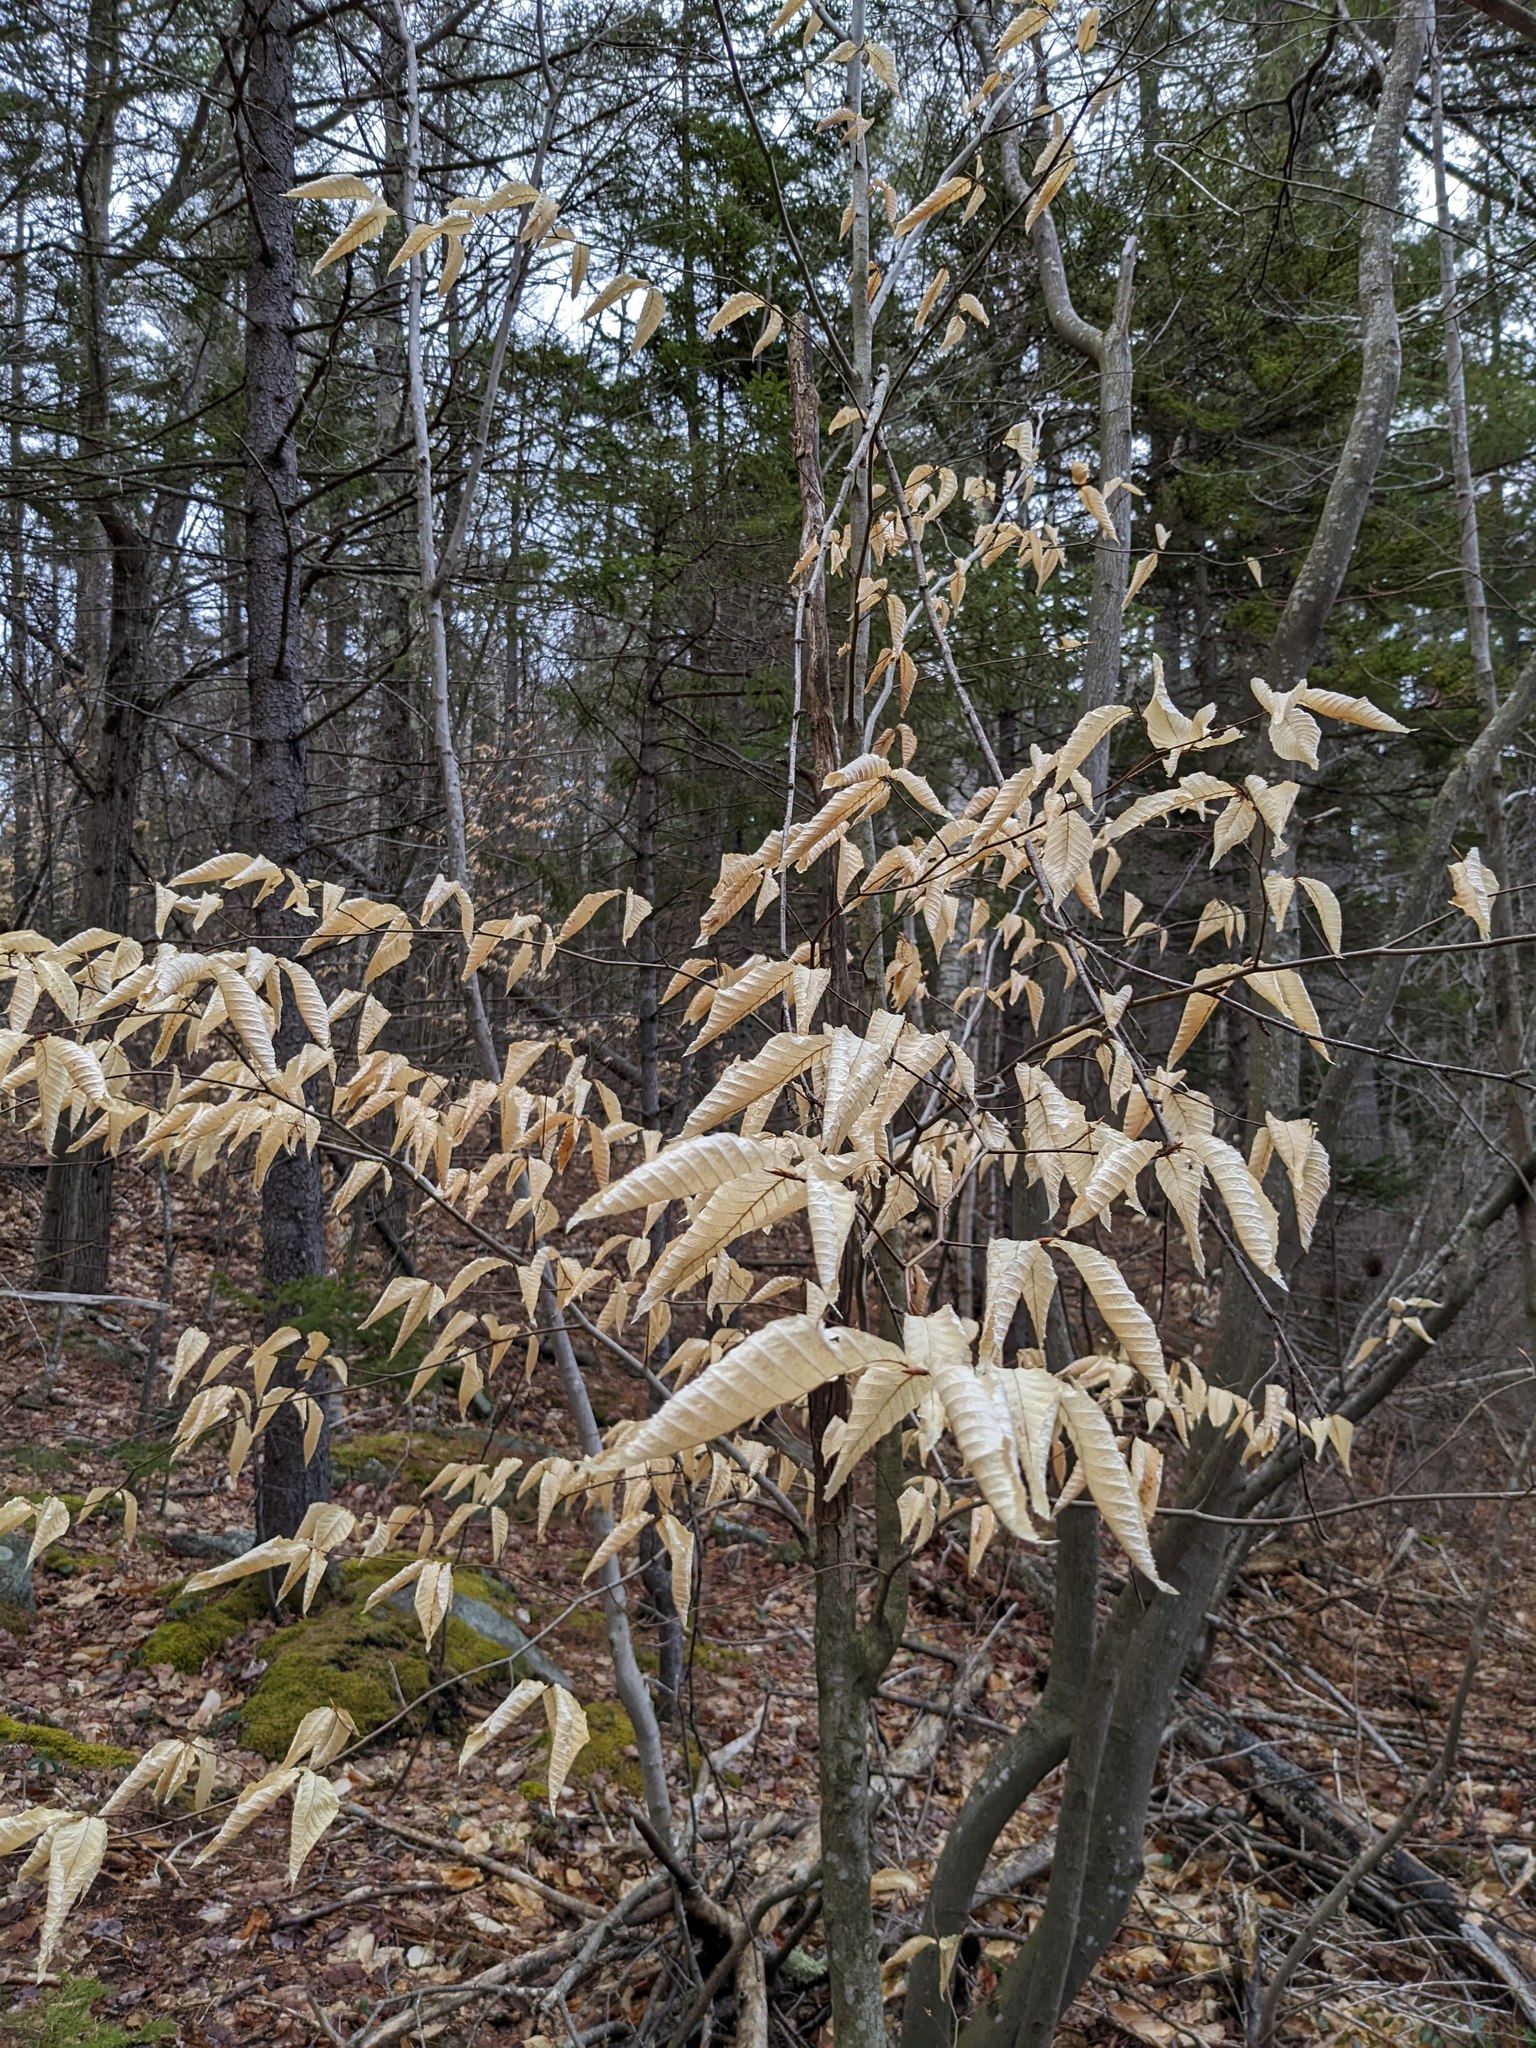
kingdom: Plantae
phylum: Tracheophyta
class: Magnoliopsida
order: Fagales
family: Fagaceae
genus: Fagus
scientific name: Fagus grandifolia
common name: American beech
